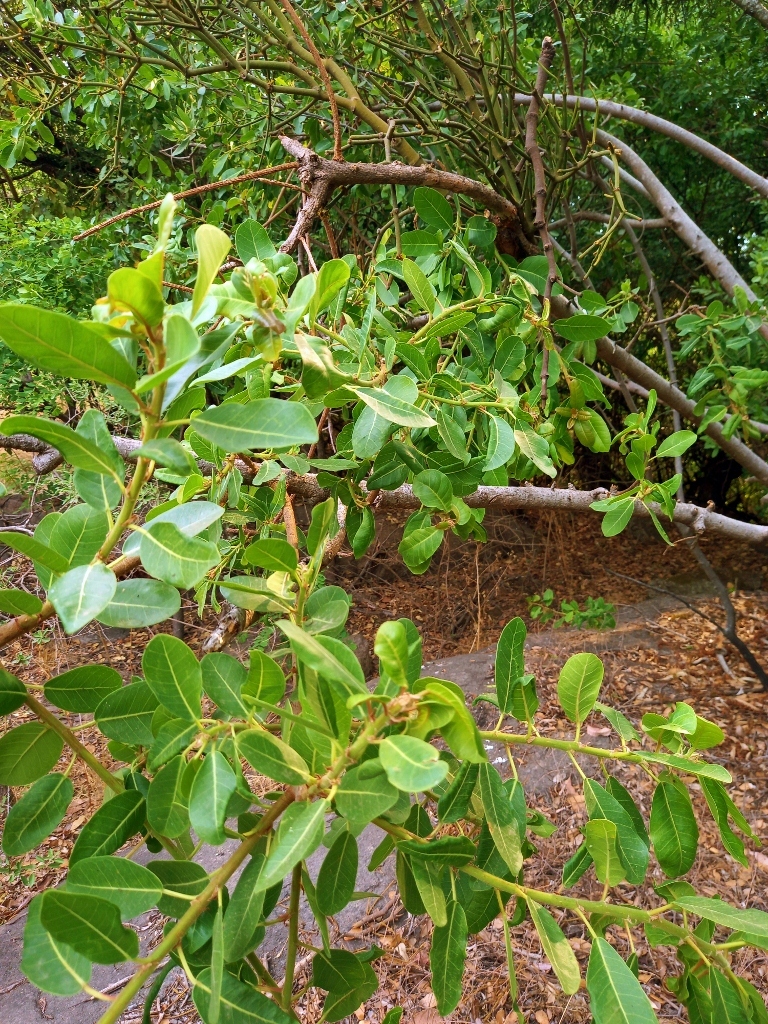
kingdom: Plantae
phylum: Tracheophyta
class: Magnoliopsida
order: Rosales
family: Moraceae
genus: Ficus
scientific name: Ficus thonningii
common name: Fig
